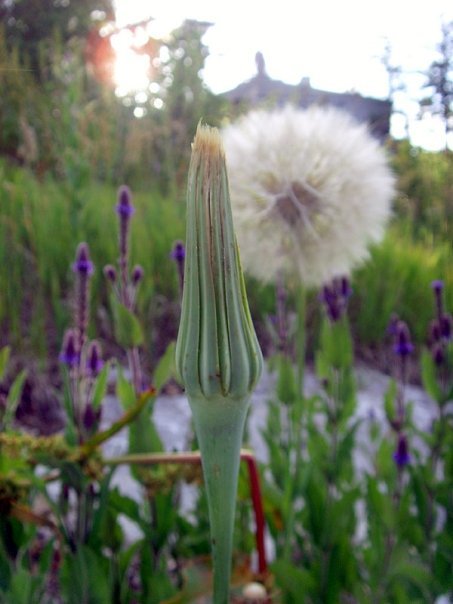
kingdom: Plantae
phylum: Tracheophyta
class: Magnoliopsida
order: Asterales
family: Asteraceae
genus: Tragopogon
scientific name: Tragopogon dubius
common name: Yellow salsify
